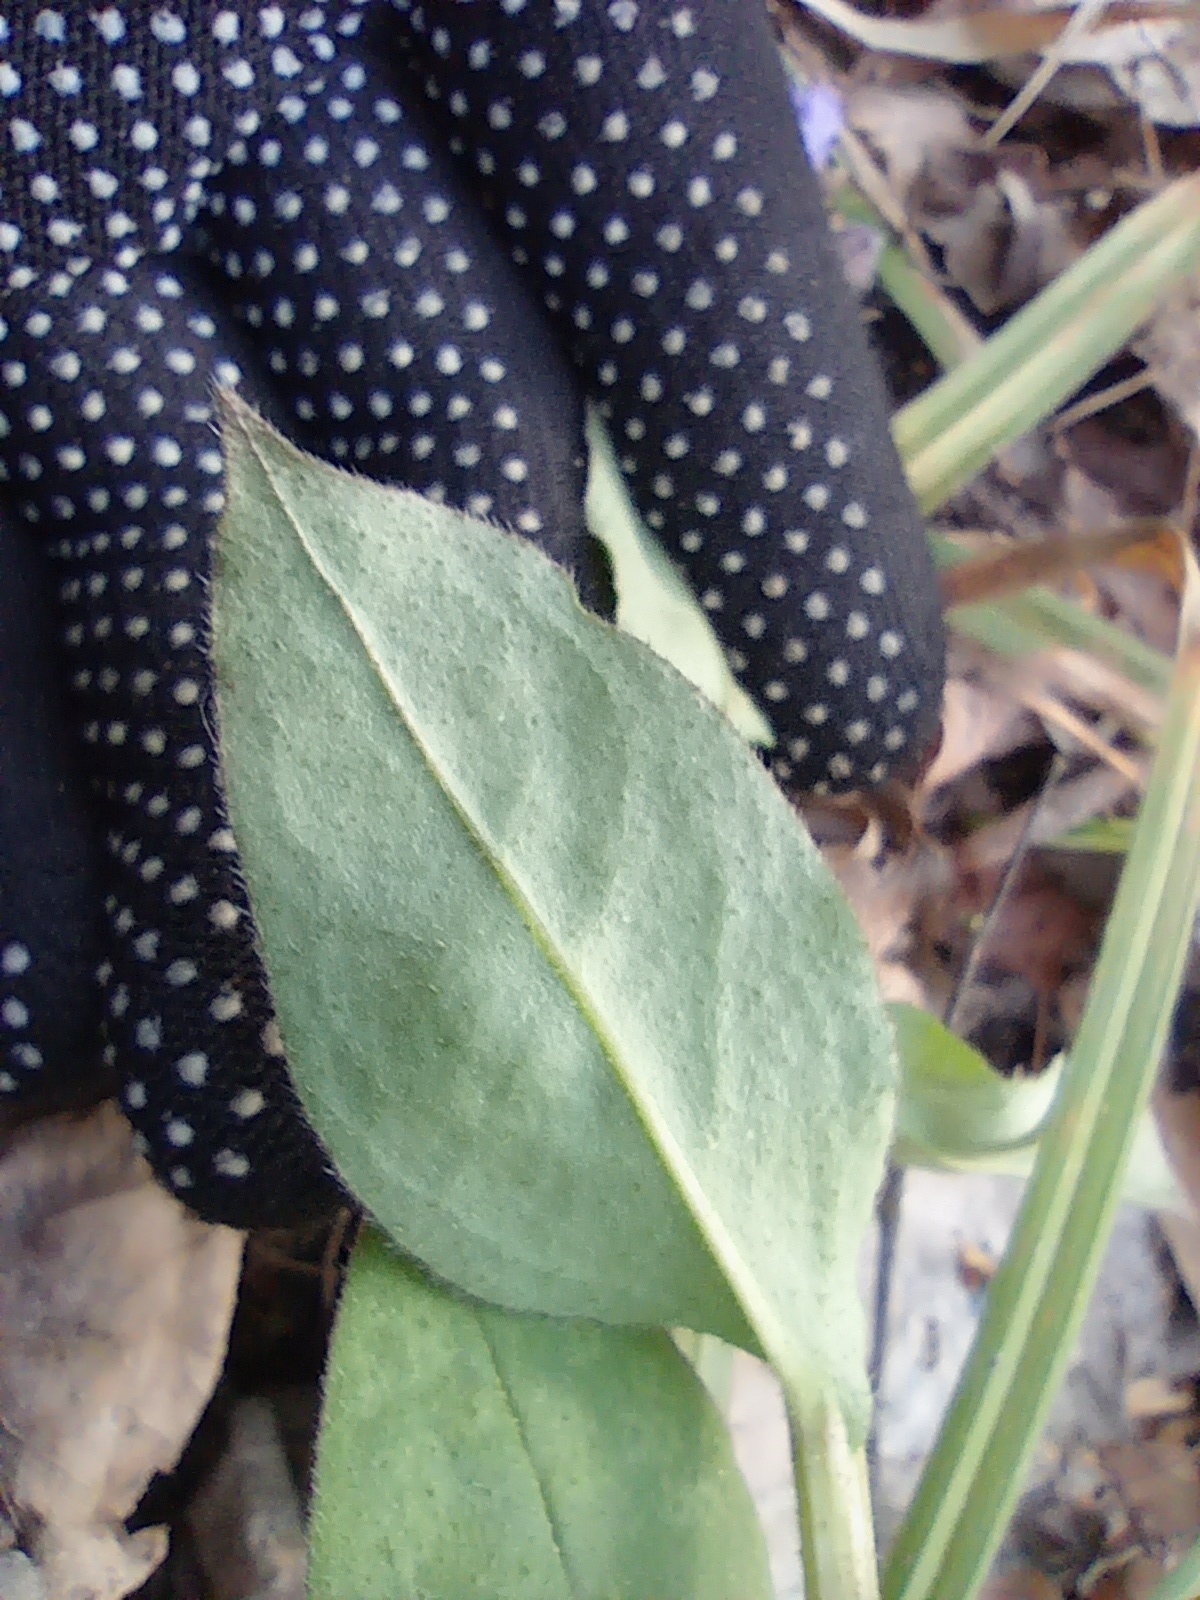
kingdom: Plantae
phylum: Tracheophyta
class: Magnoliopsida
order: Boraginales
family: Boraginaceae
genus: Pulmonaria
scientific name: Pulmonaria obscura
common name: Suffolk lungwort
